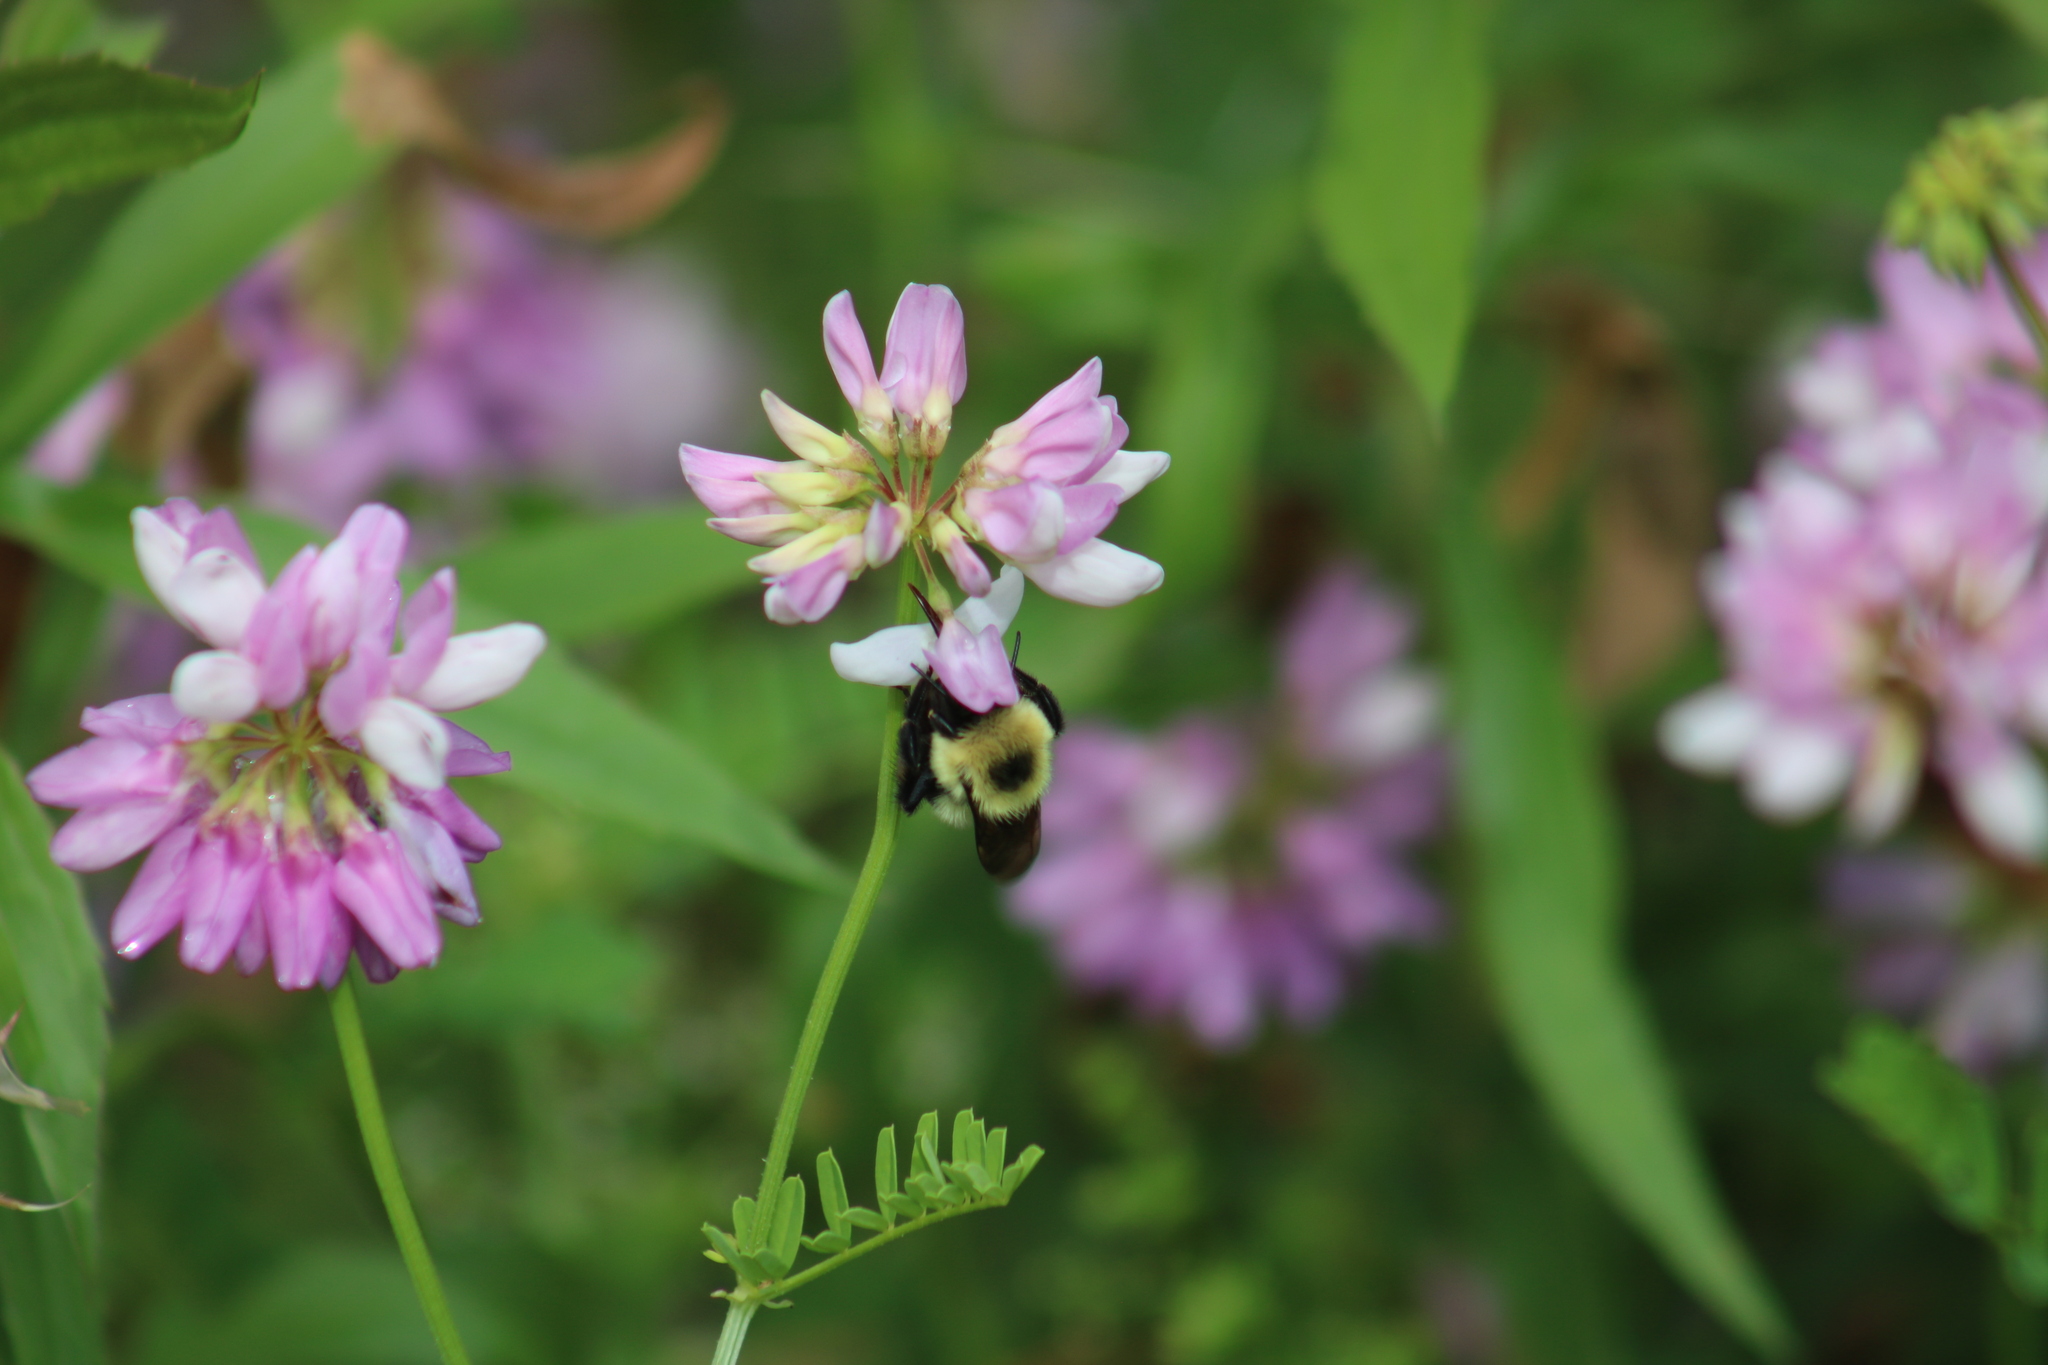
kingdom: Animalia
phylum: Arthropoda
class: Insecta
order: Hymenoptera
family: Apidae
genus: Bombus
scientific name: Bombus bimaculatus
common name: Two-spotted bumble bee
